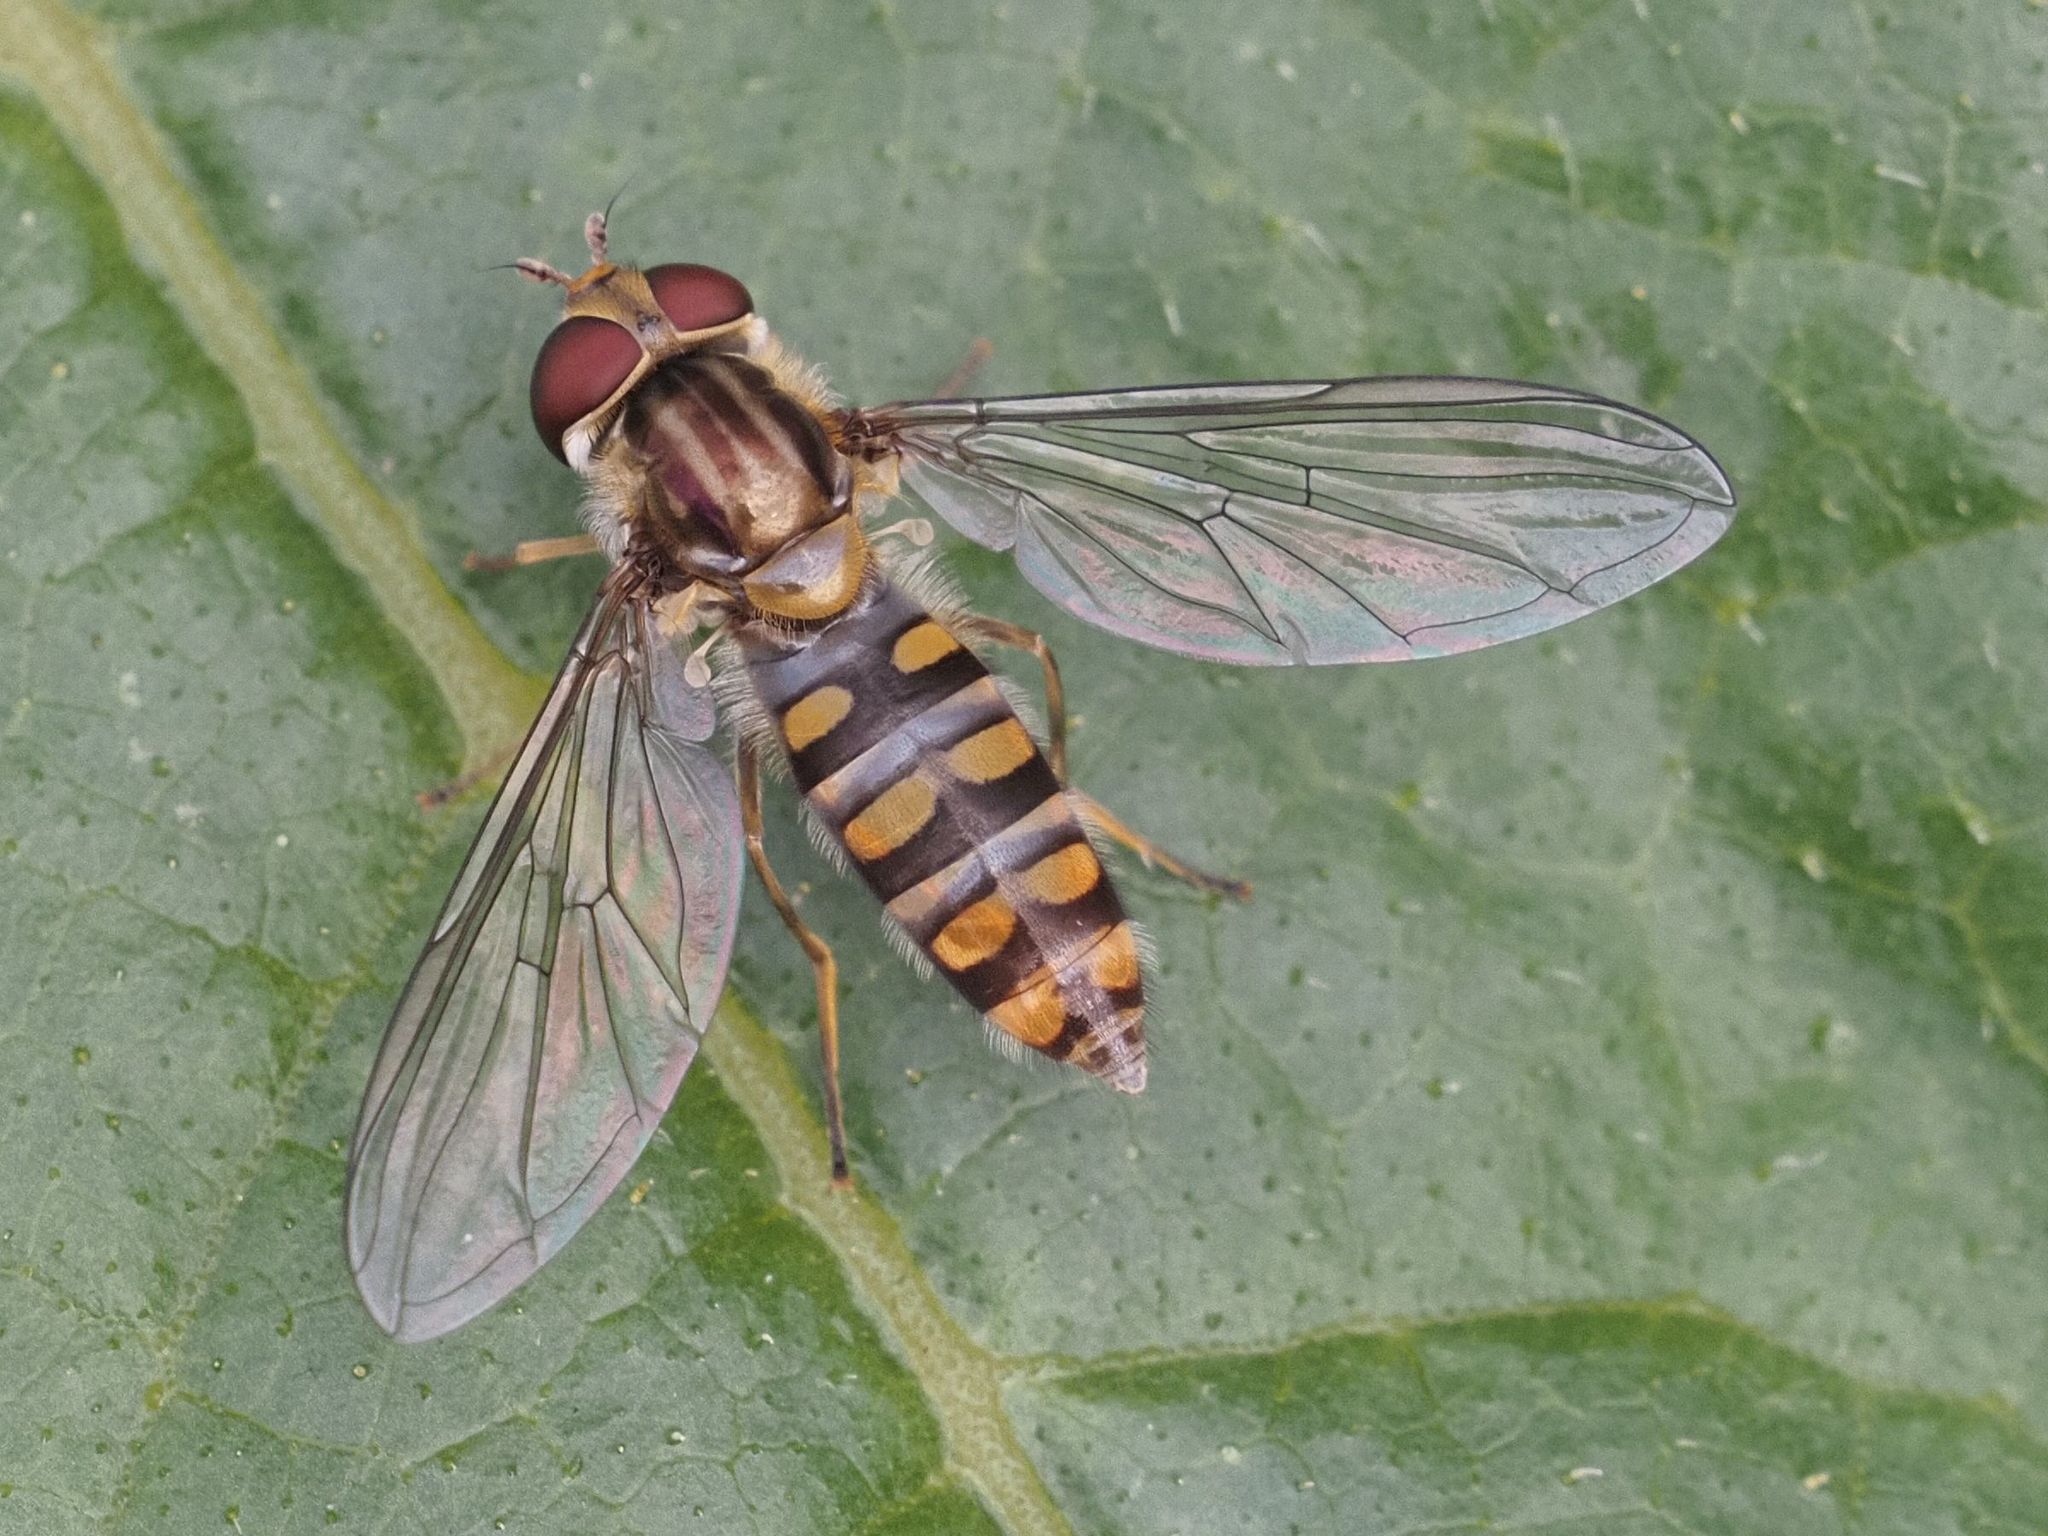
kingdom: Animalia
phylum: Arthropoda
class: Insecta
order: Diptera
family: Syrphidae
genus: Episyrphus
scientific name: Episyrphus balteatus
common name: Marmalade hoverfly
